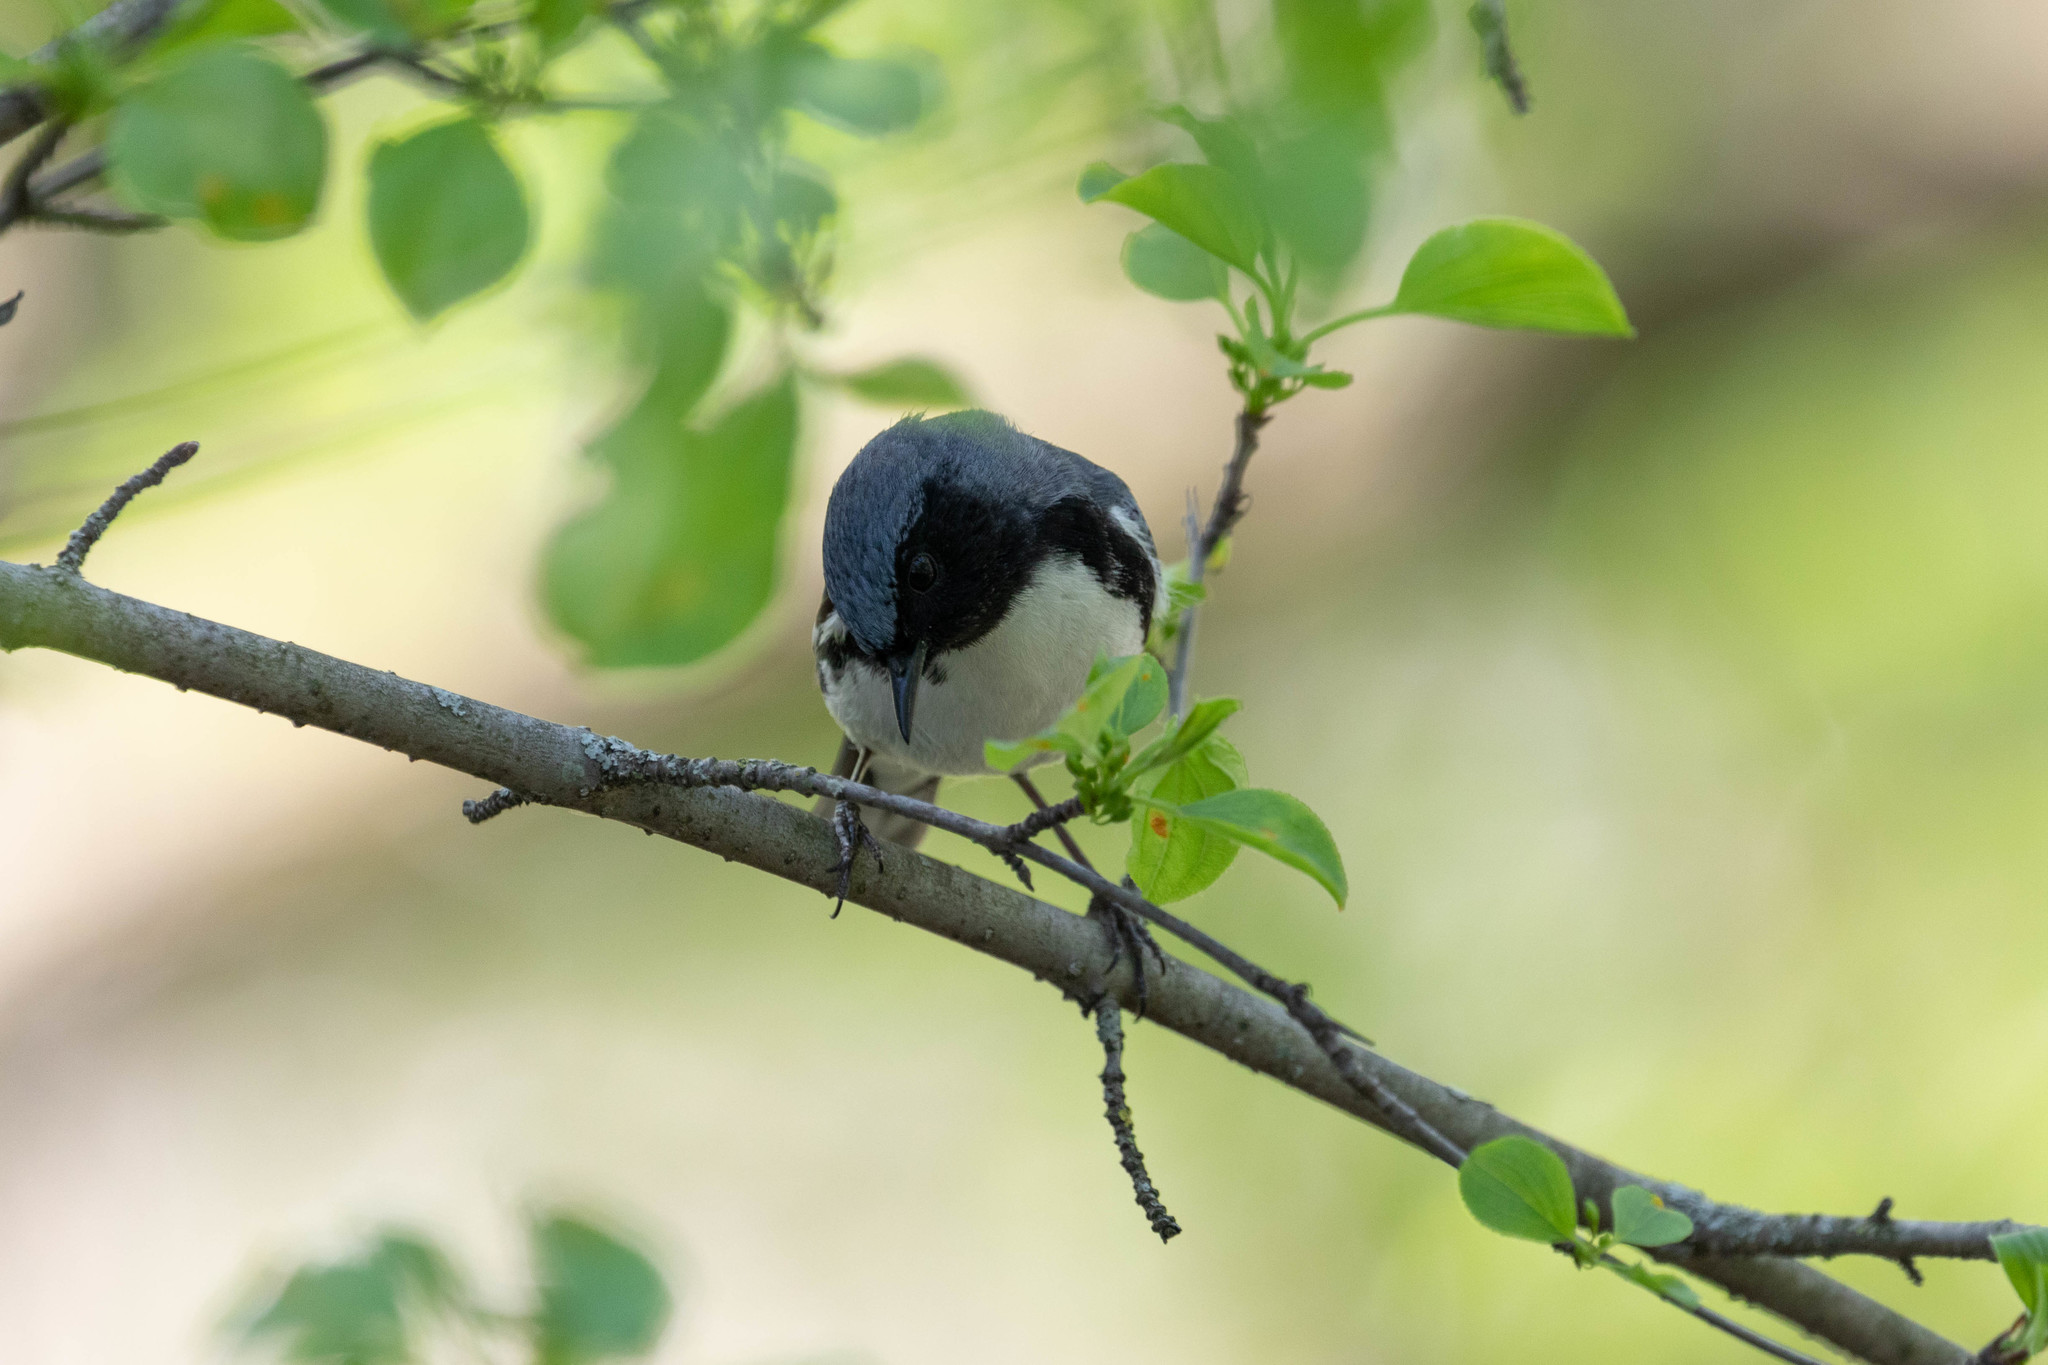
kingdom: Animalia
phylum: Chordata
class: Aves
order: Passeriformes
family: Parulidae
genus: Setophaga
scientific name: Setophaga caerulescens
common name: Black-throated blue warbler
